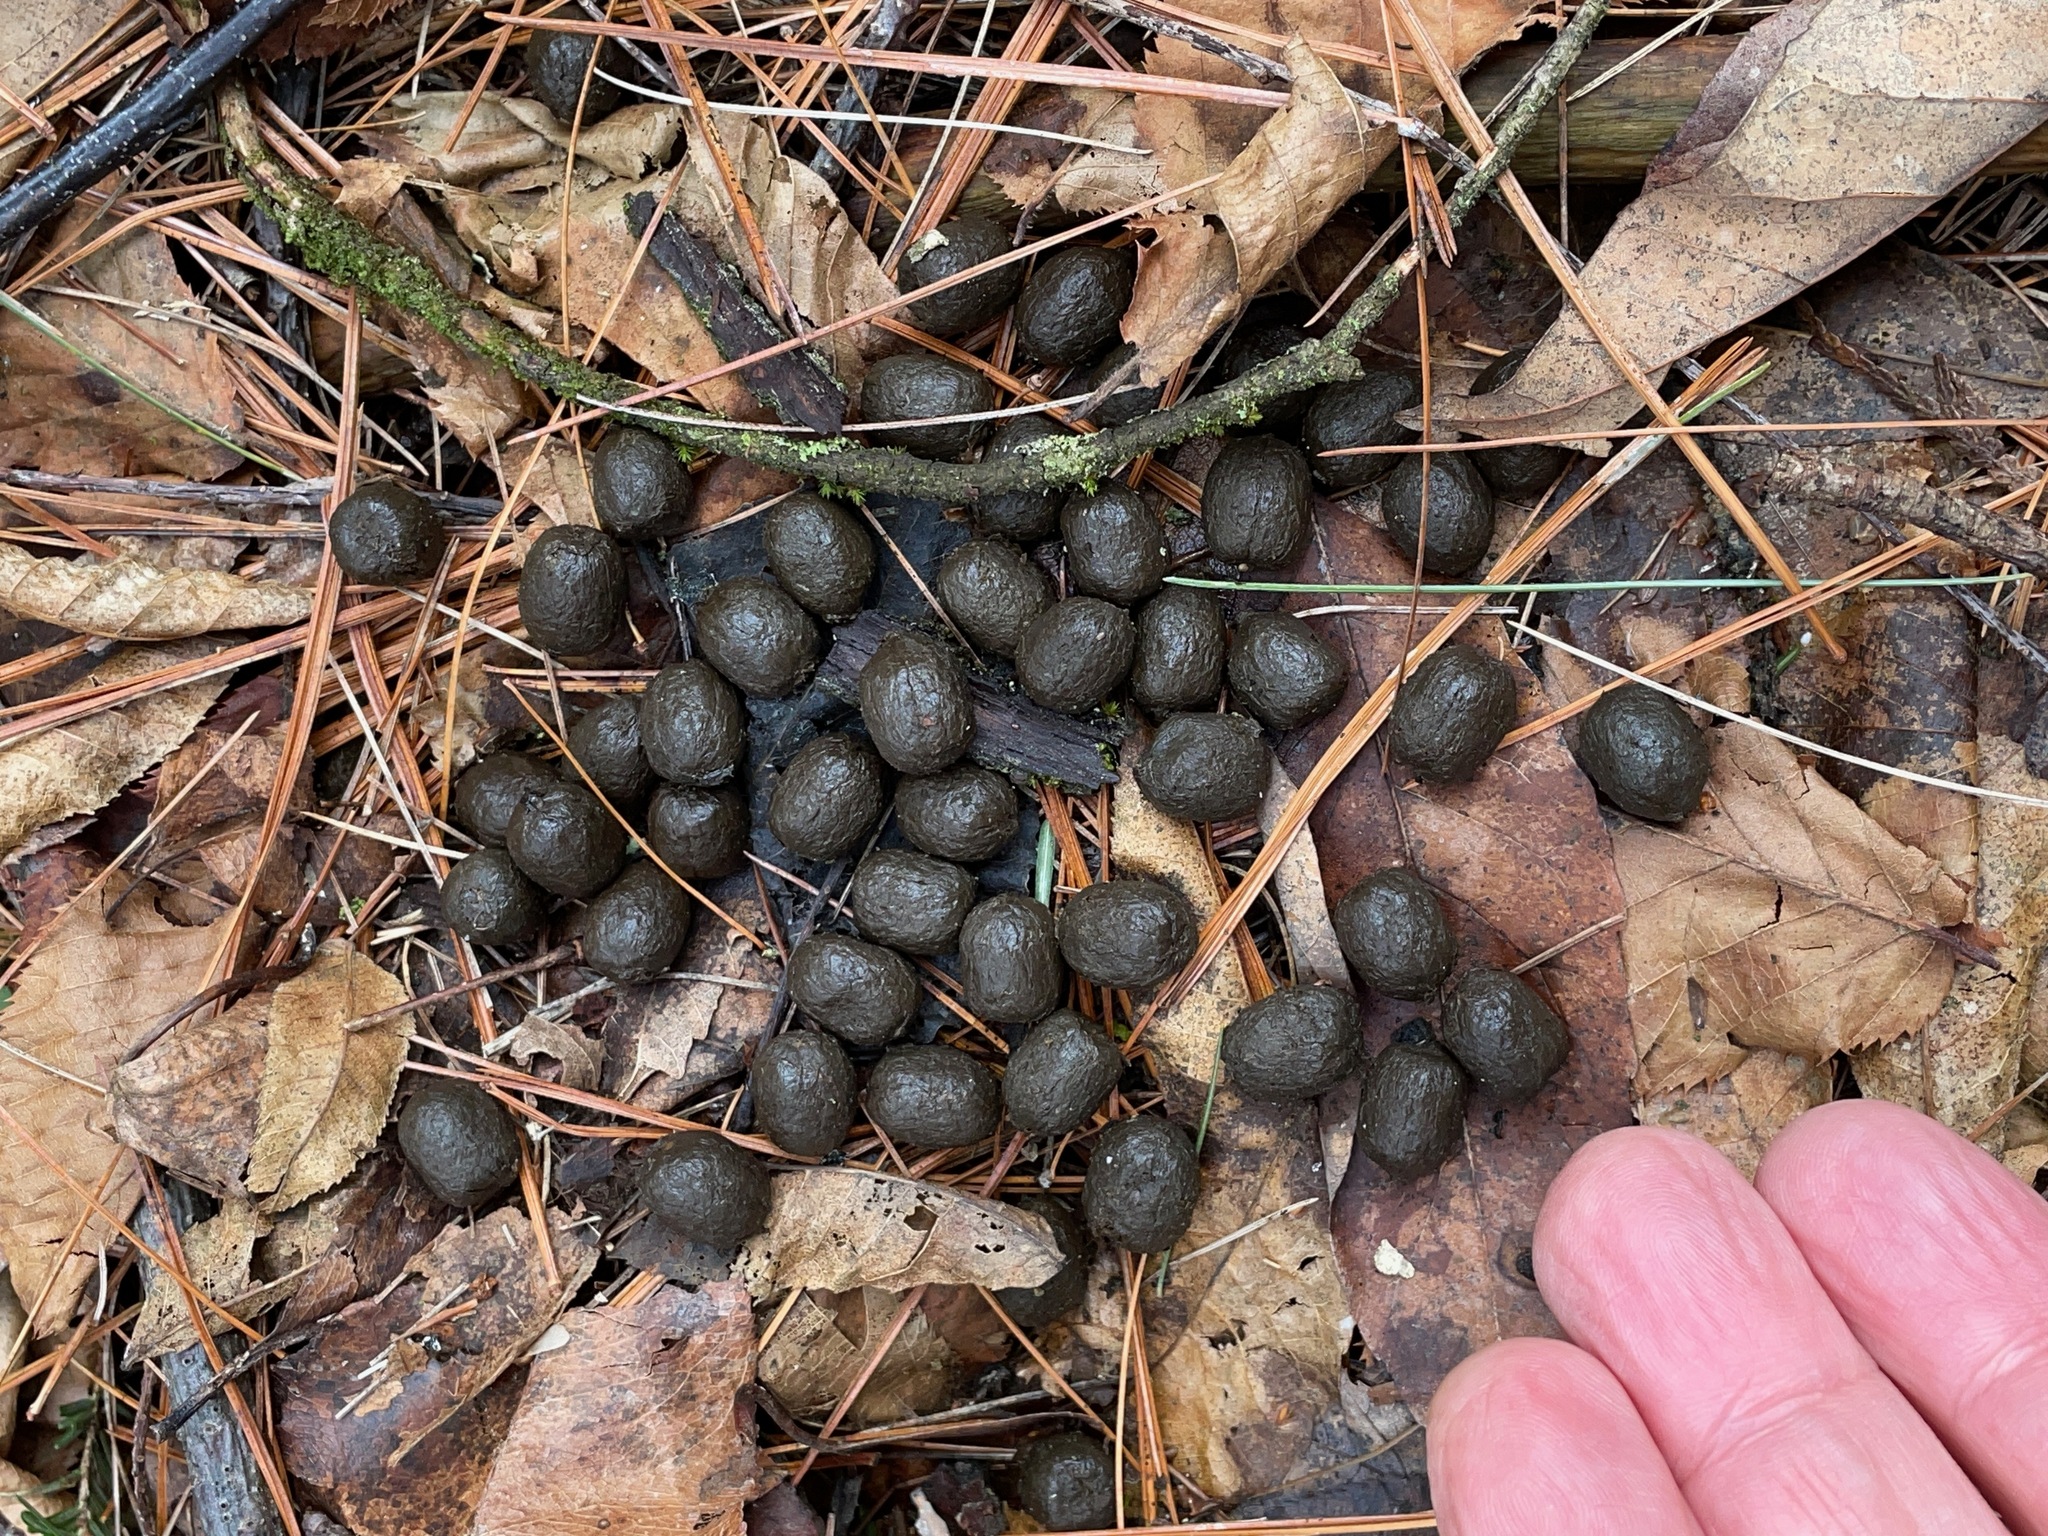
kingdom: Animalia
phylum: Chordata
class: Mammalia
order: Artiodactyla
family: Cervidae
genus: Odocoileus
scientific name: Odocoileus virginianus
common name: White-tailed deer
